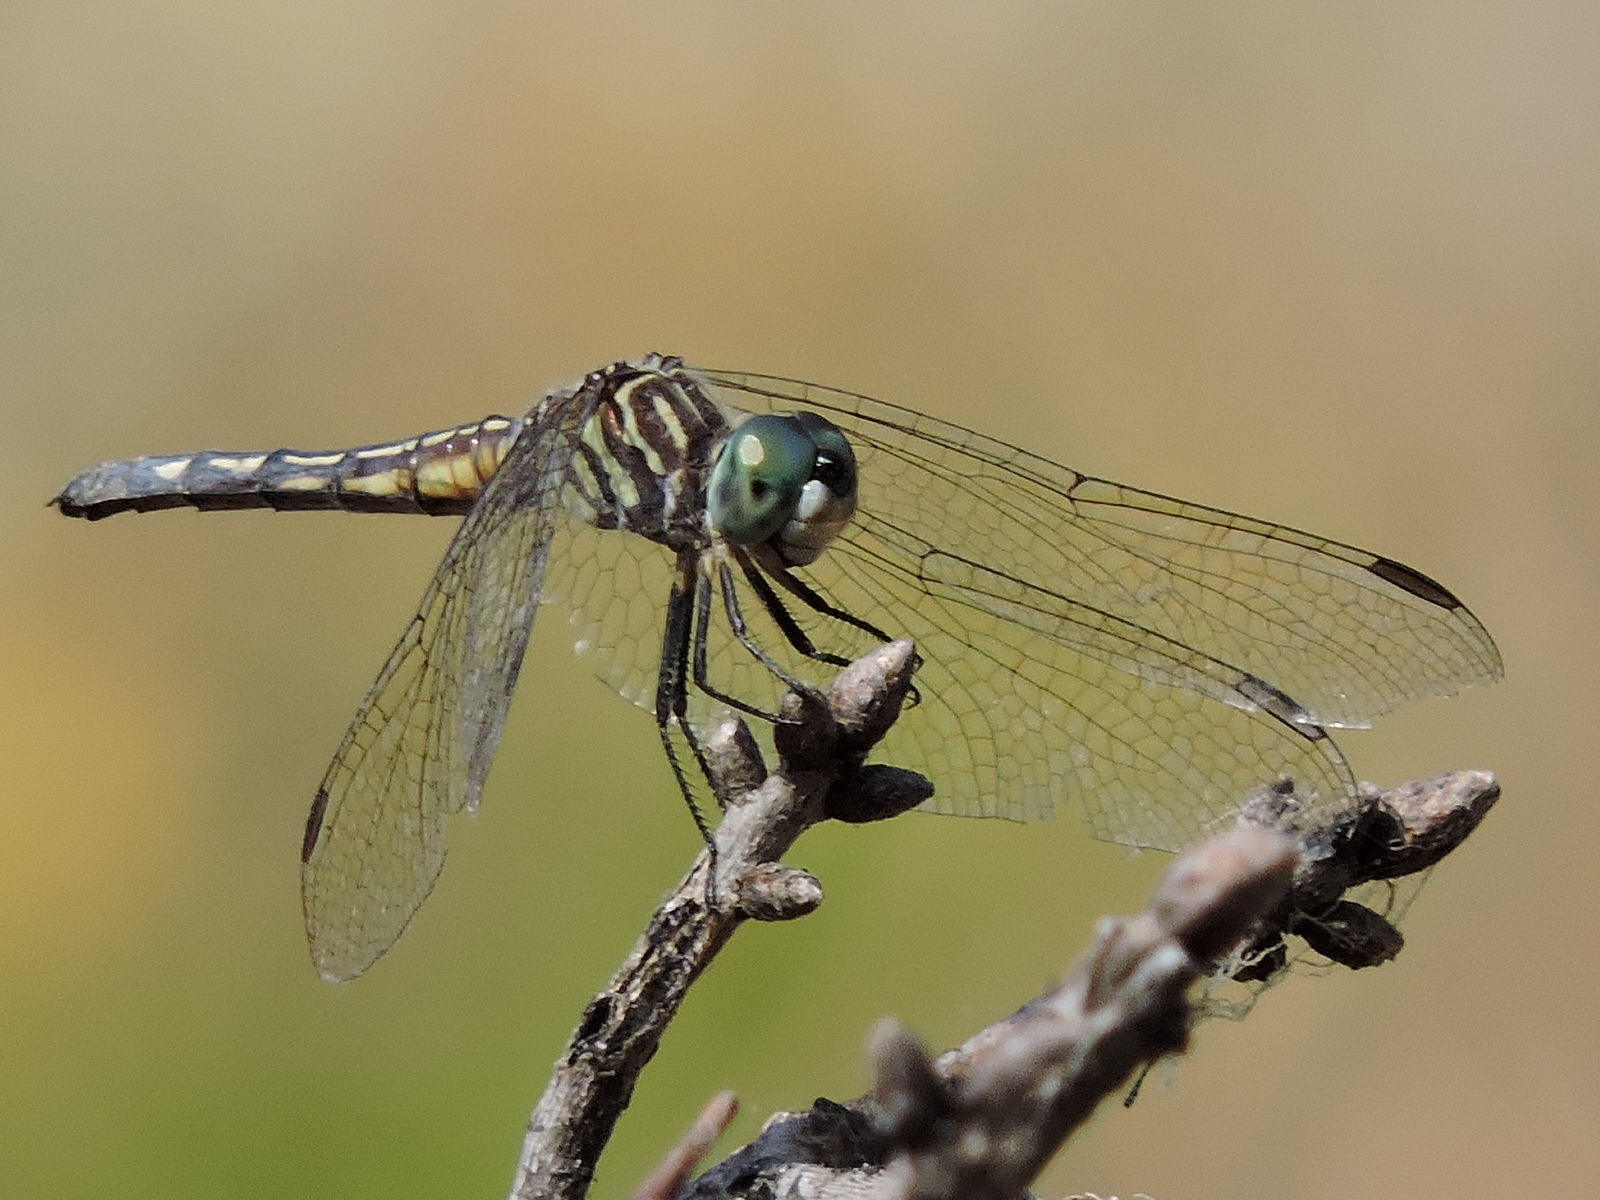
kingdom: Animalia
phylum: Arthropoda
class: Insecta
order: Odonata
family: Libellulidae
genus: Pachydiplax
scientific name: Pachydiplax longipennis
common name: Blue dasher
